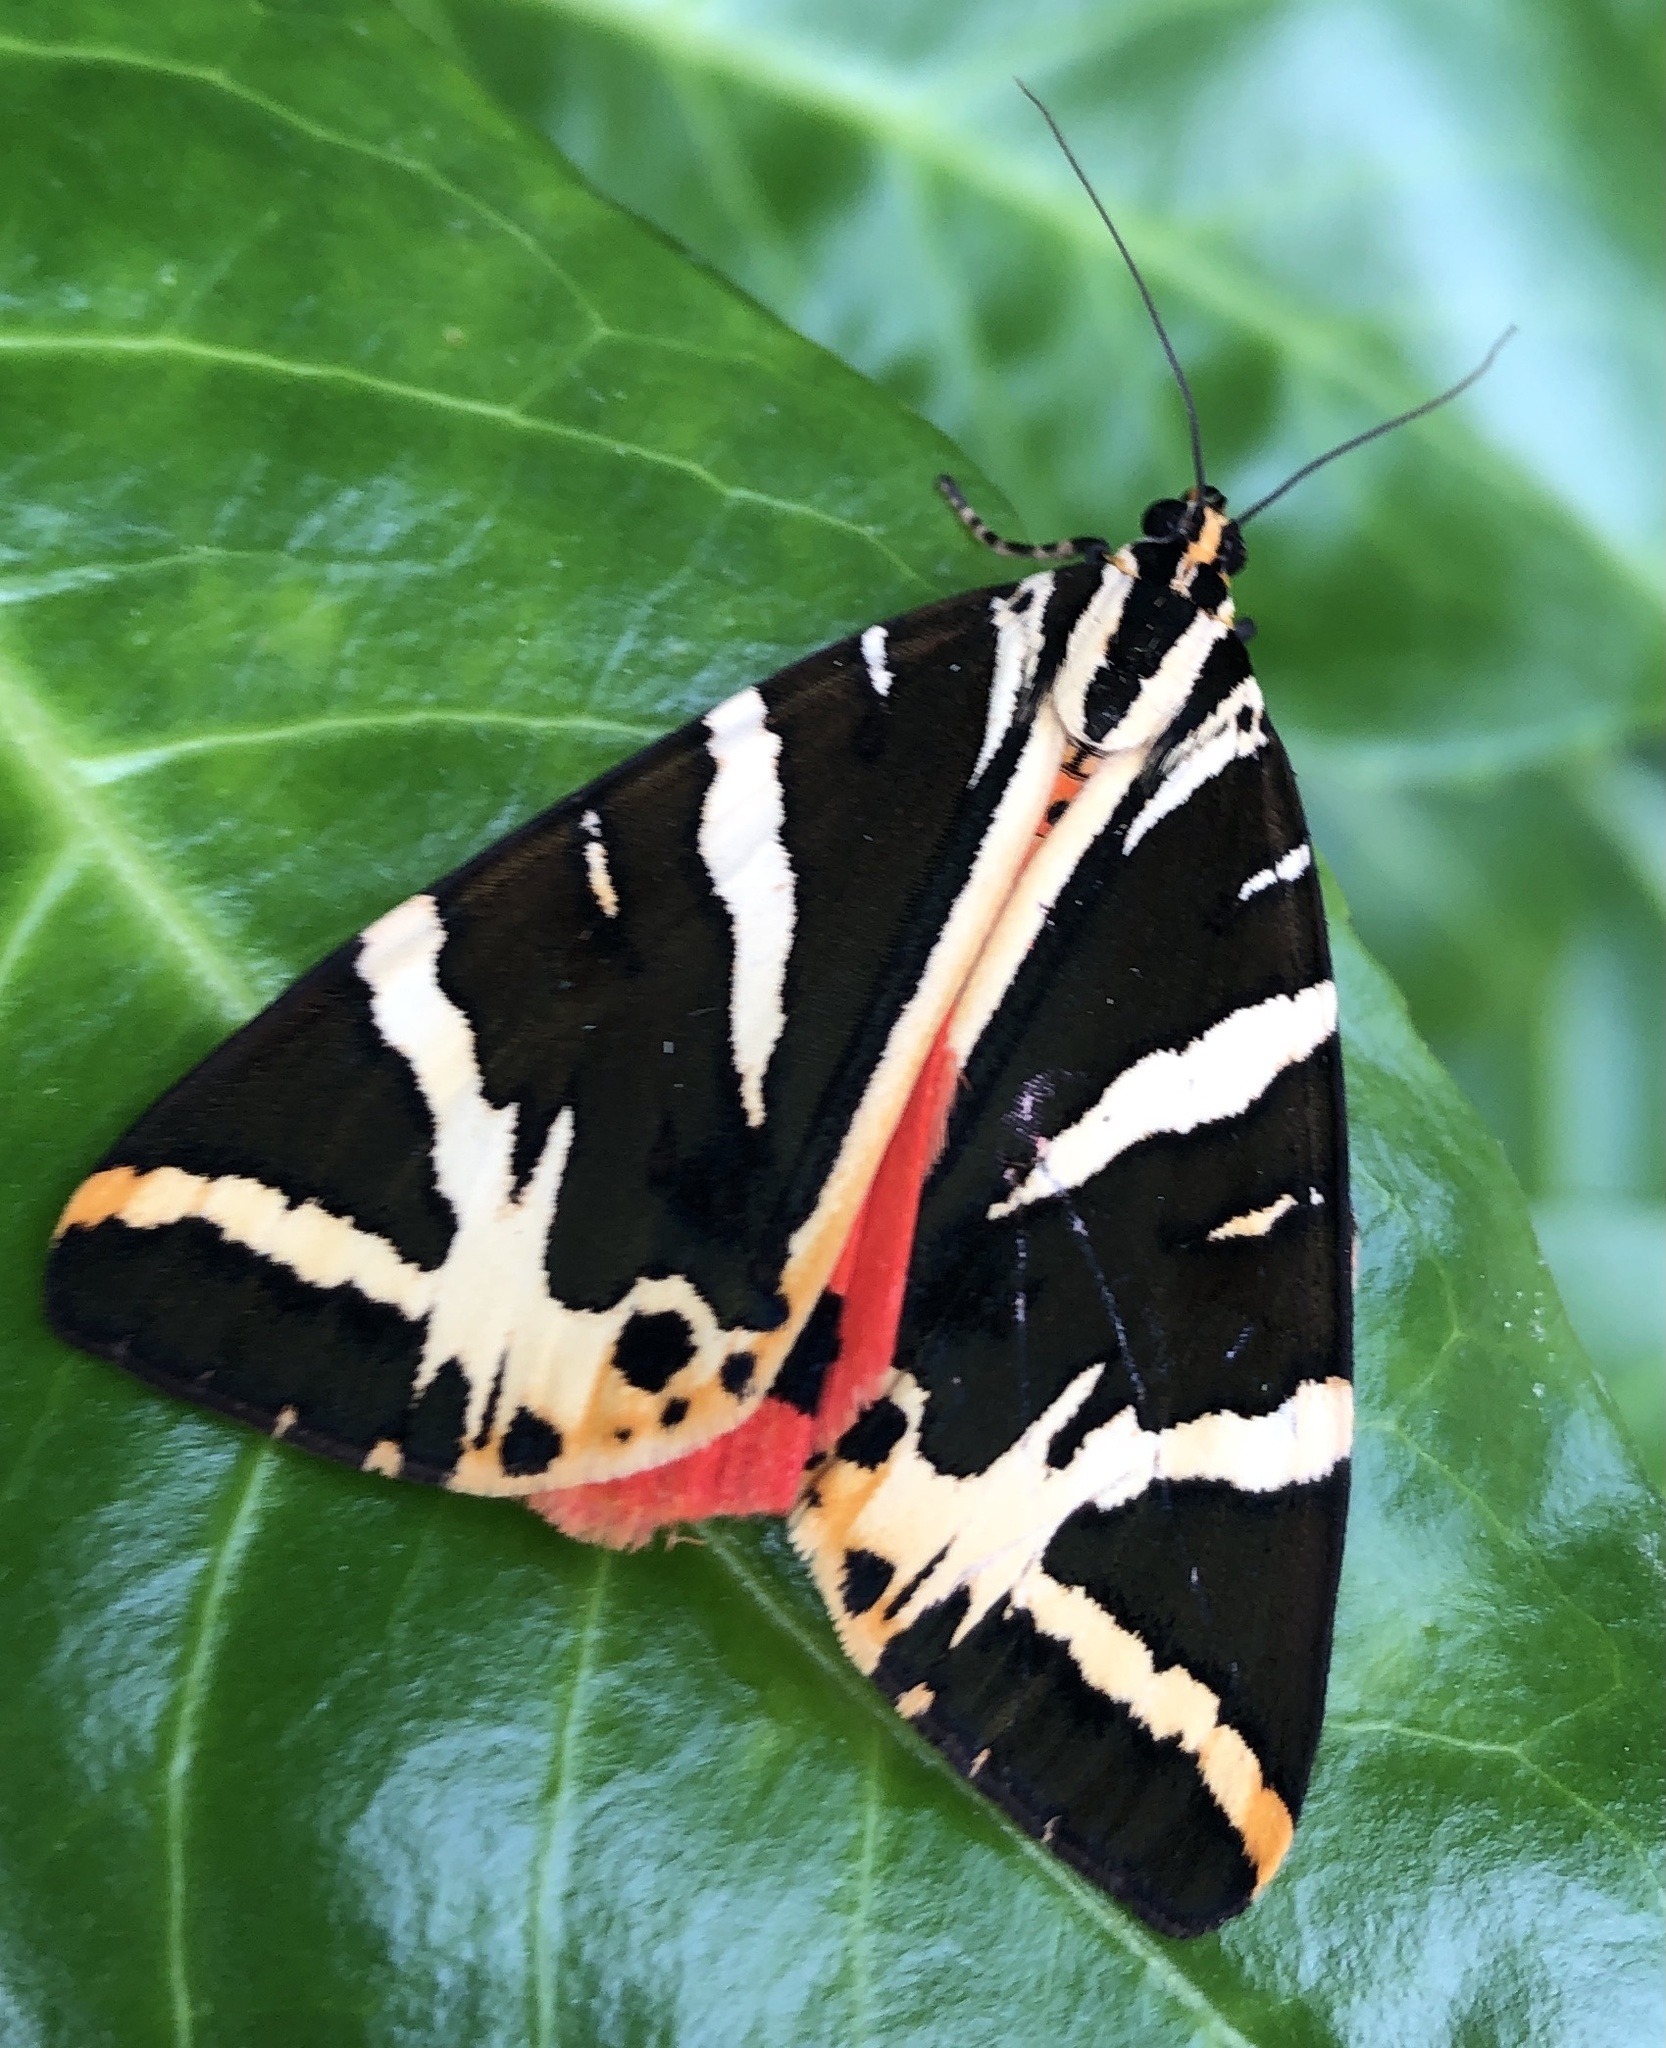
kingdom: Animalia
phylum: Arthropoda
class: Insecta
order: Lepidoptera
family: Erebidae
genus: Euplagia
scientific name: Euplagia quadripunctaria
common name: Jersey tiger
